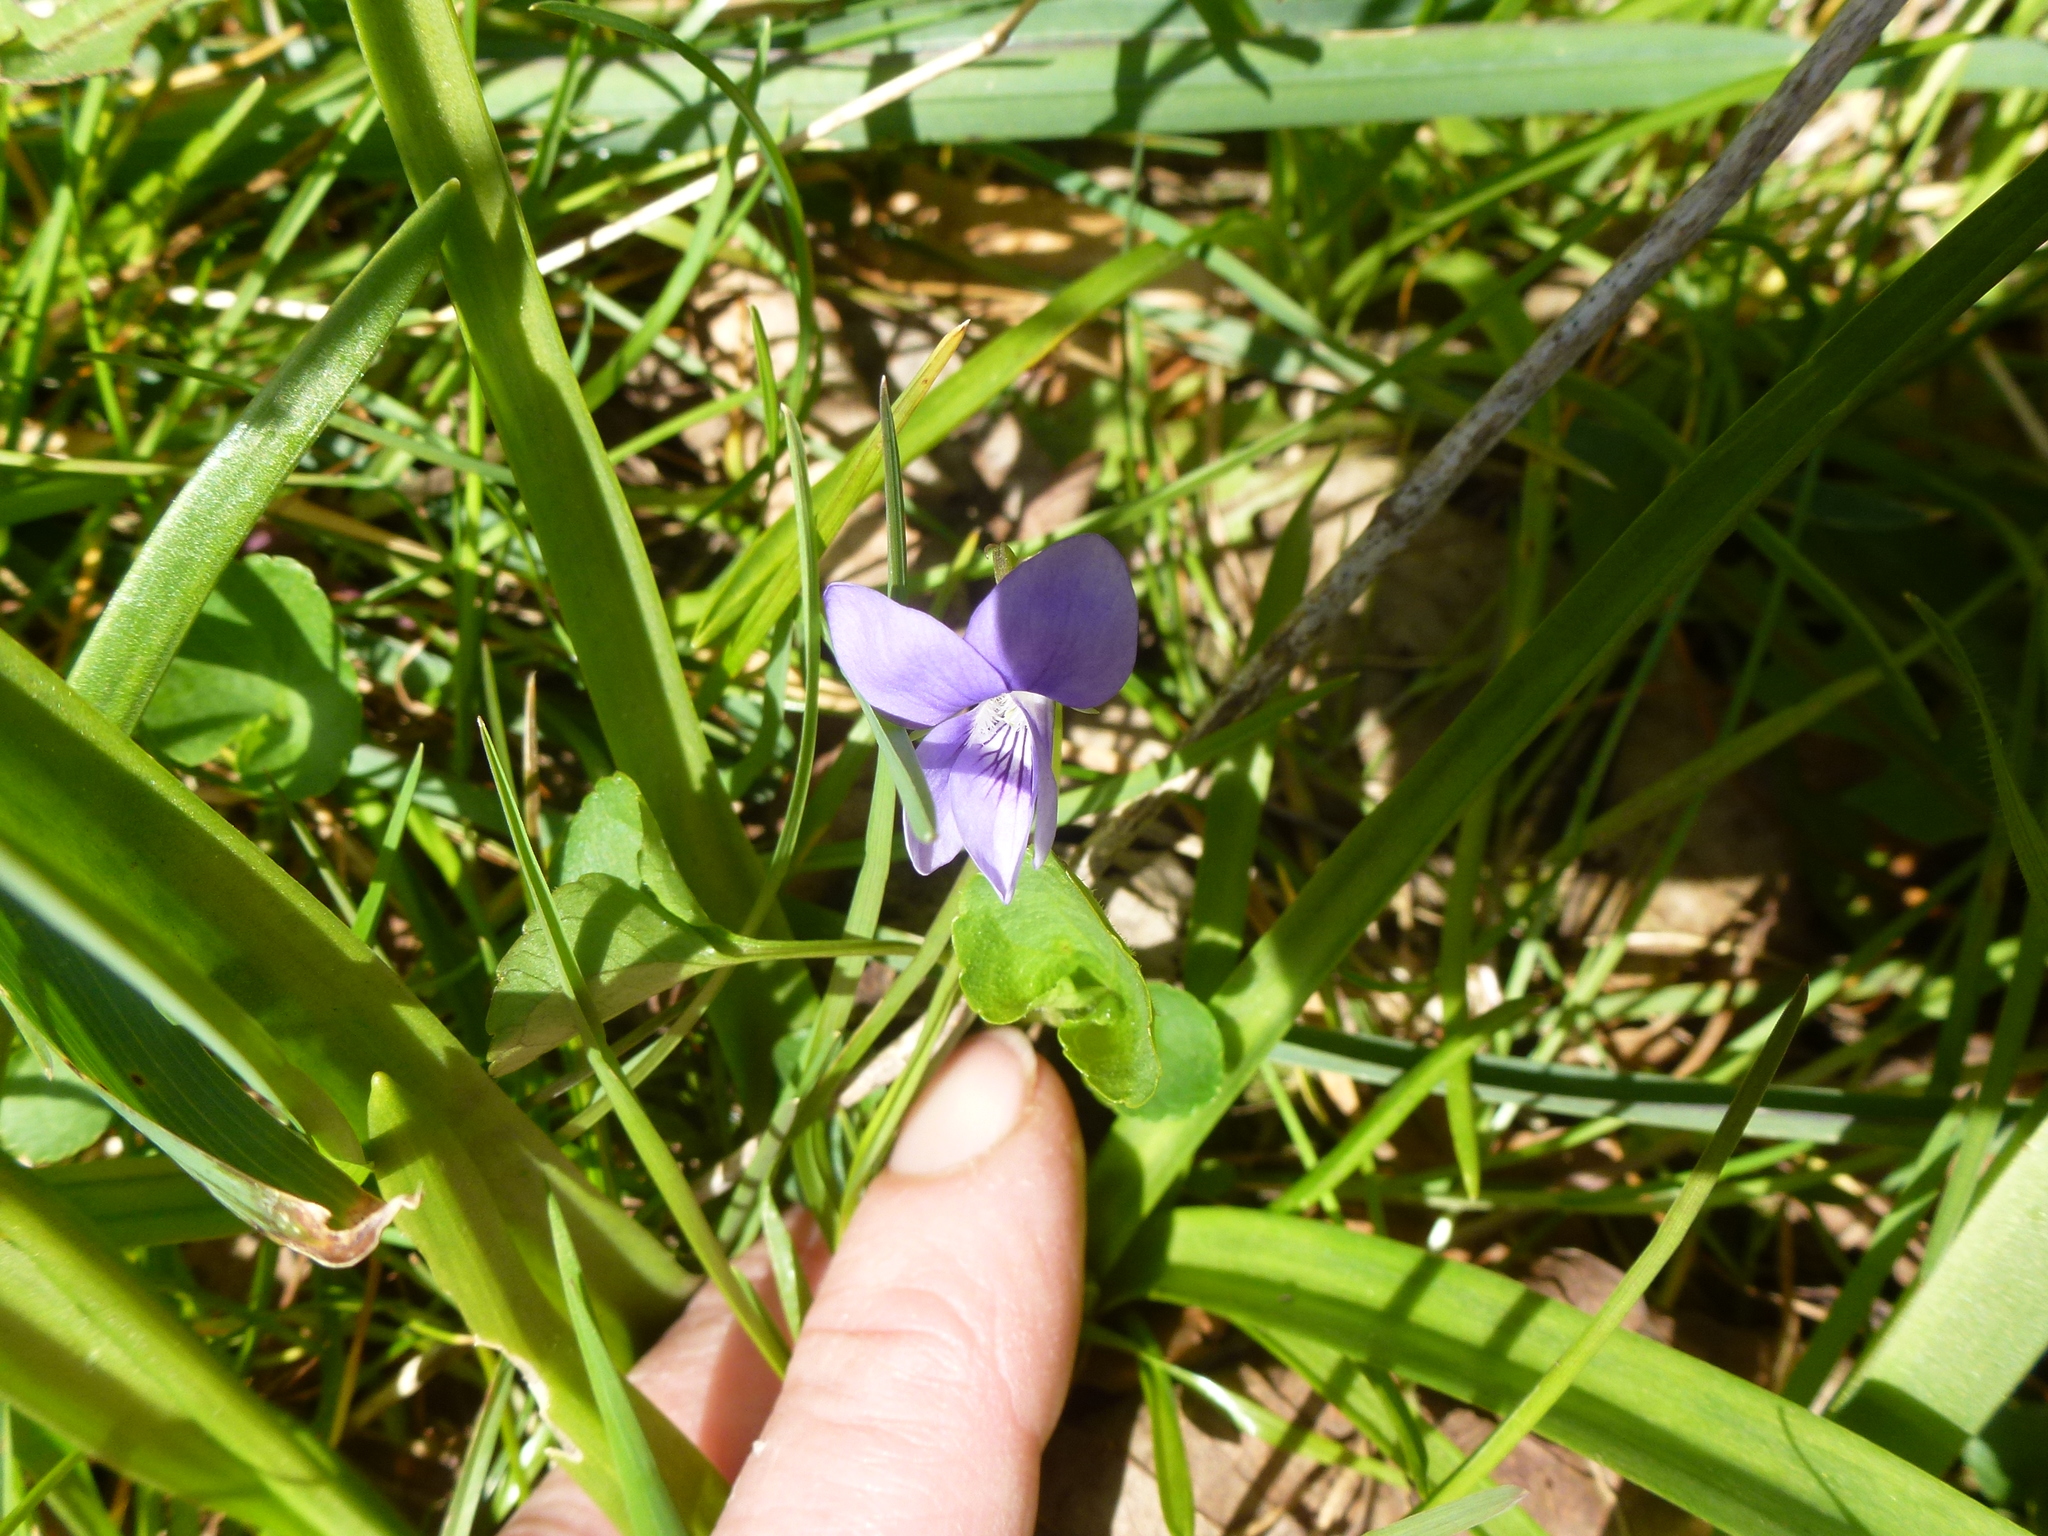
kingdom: Plantae
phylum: Tracheophyta
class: Magnoliopsida
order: Malpighiales
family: Violaceae
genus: Viola
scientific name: Viola riviniana
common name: Common dog-violet
